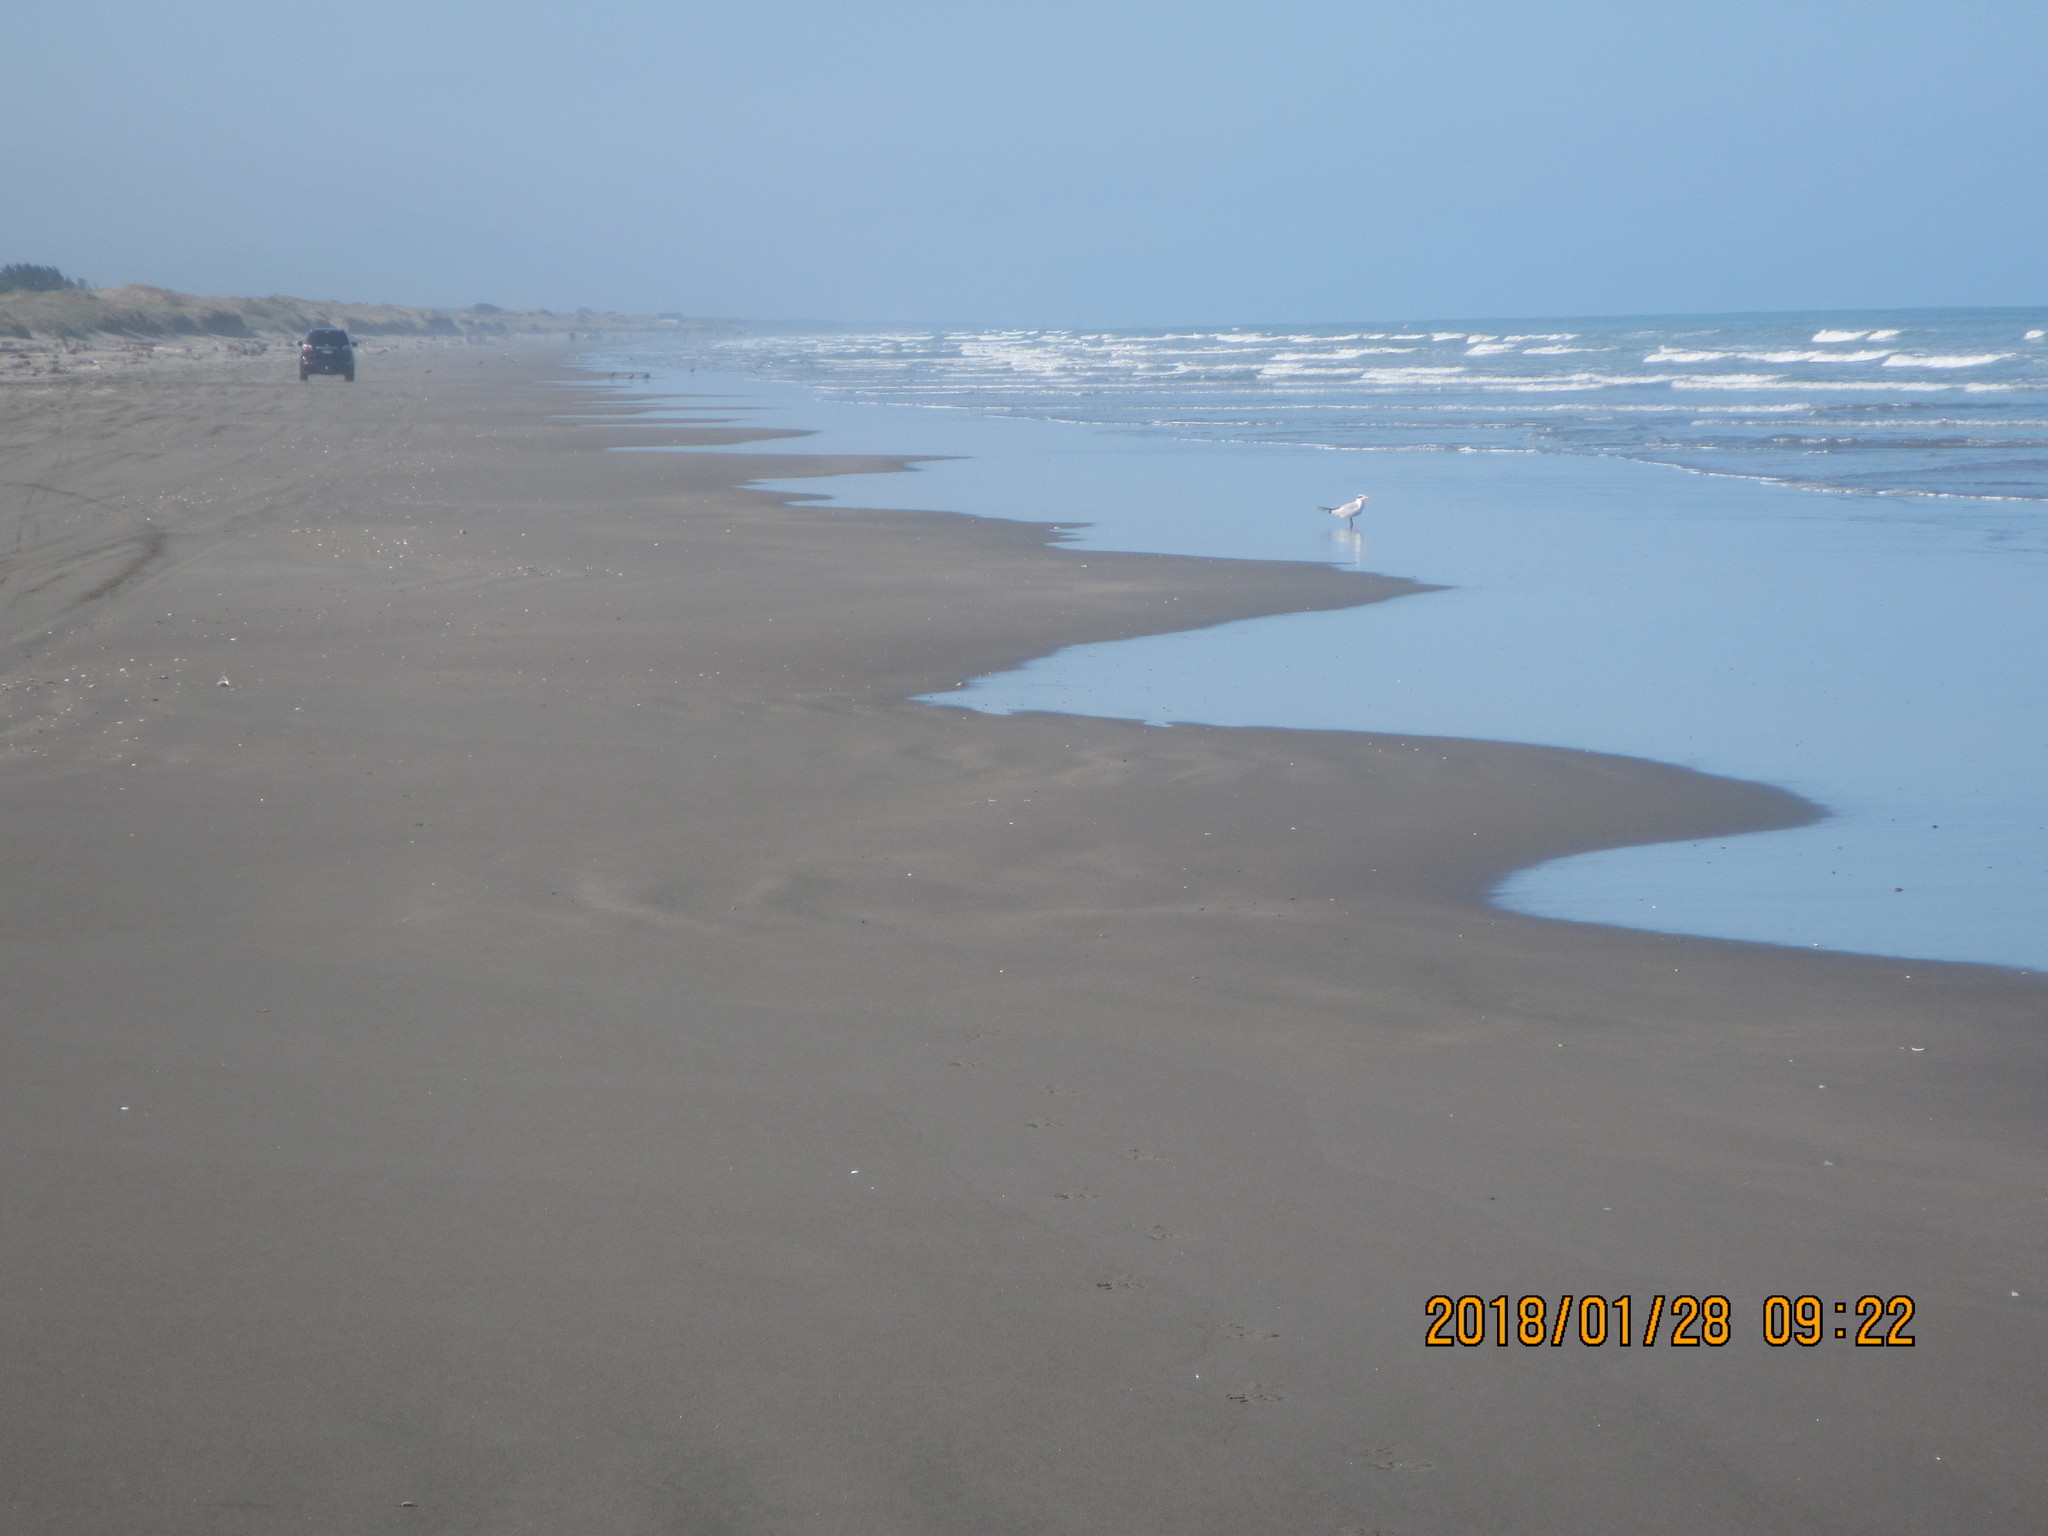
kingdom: Animalia
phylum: Chordata
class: Aves
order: Charadriiformes
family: Laridae
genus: Hydroprogne
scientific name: Hydroprogne caspia
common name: Caspian tern
